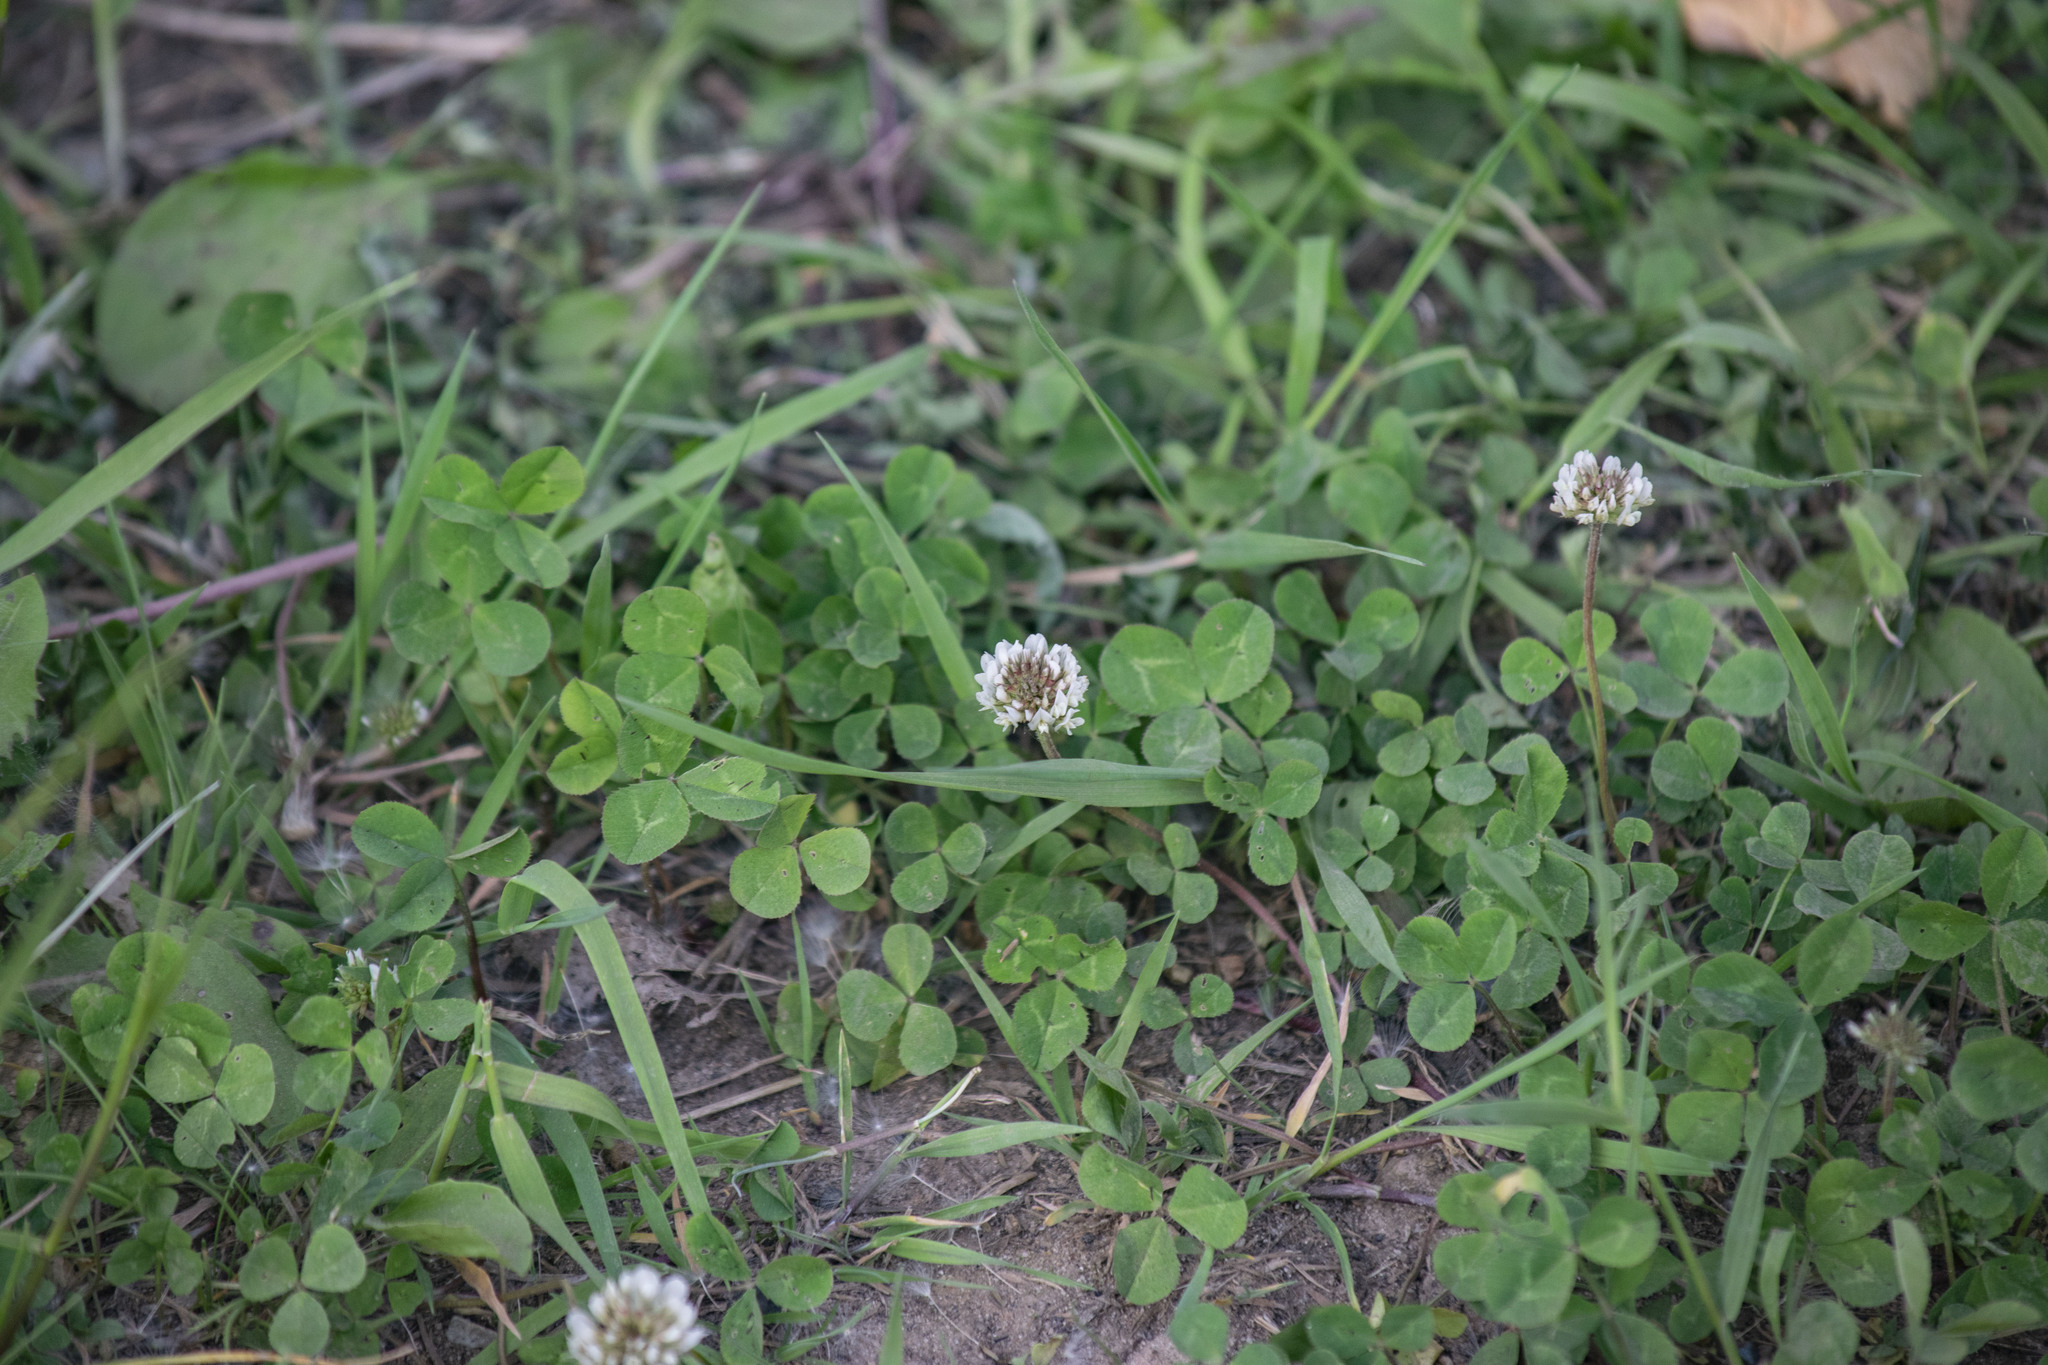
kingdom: Plantae
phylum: Tracheophyta
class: Magnoliopsida
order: Fabales
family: Fabaceae
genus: Trifolium
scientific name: Trifolium repens
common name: White clover
